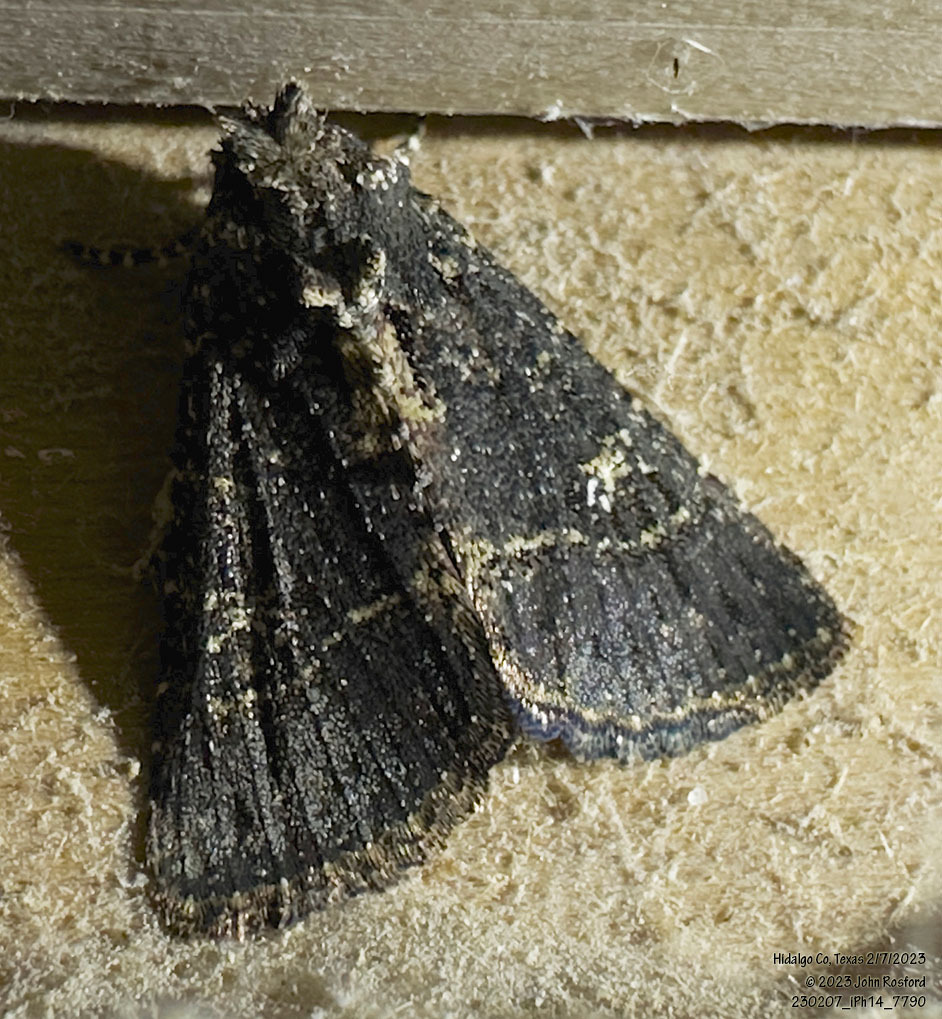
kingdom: Animalia
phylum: Arthropoda
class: Insecta
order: Lepidoptera
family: Noctuidae
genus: Condica
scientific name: Condica albigera
